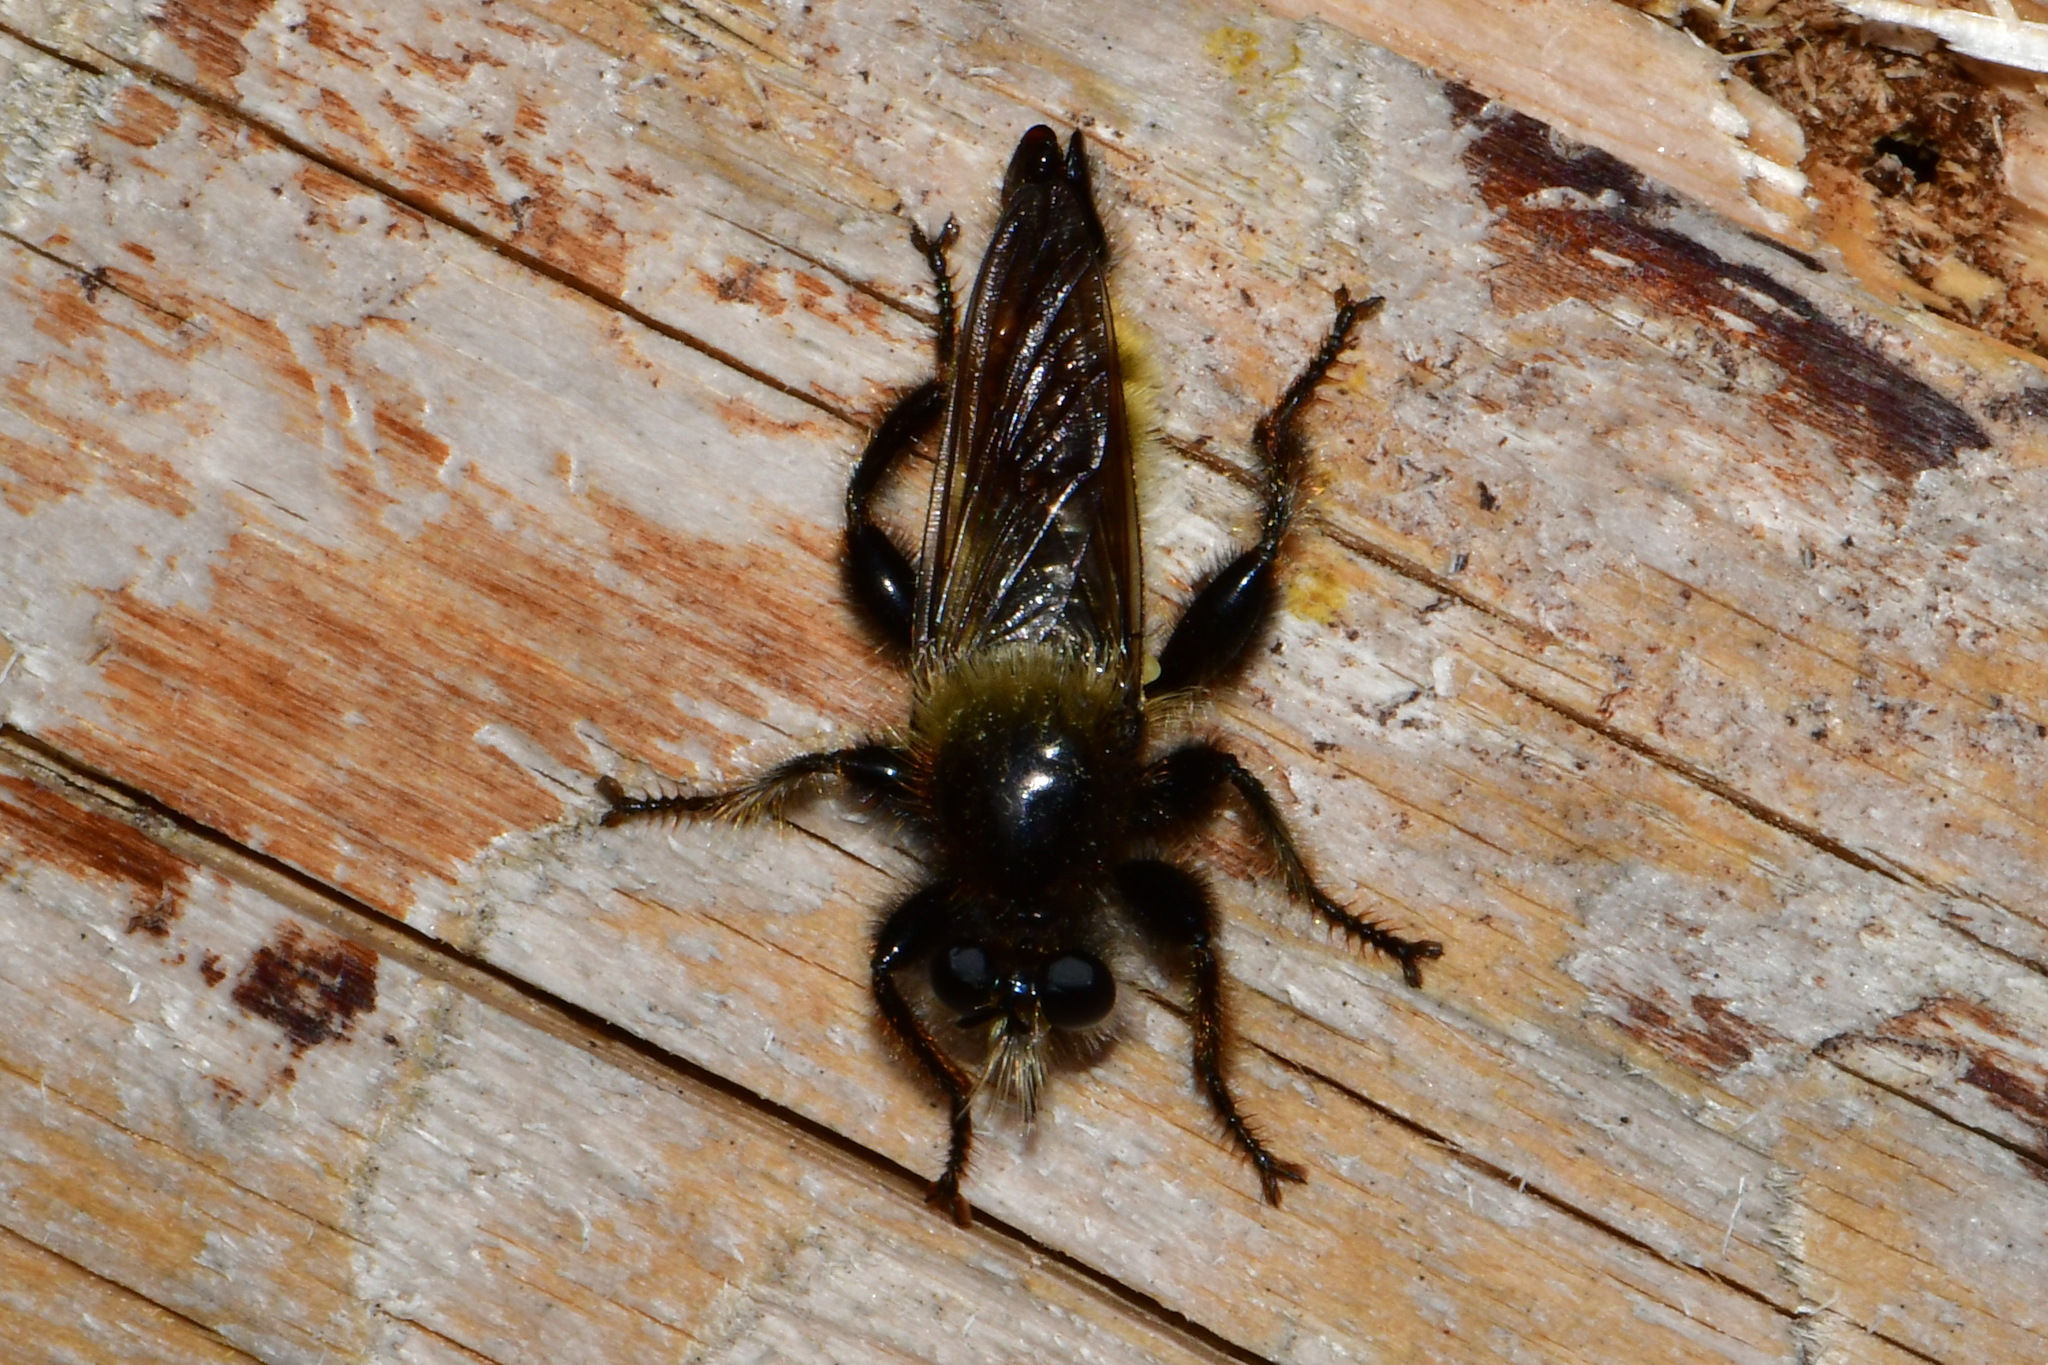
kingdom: Animalia
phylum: Arthropoda
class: Insecta
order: Diptera
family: Asilidae
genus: Laphria
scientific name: Laphria flava
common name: Bumblebee robberfly
